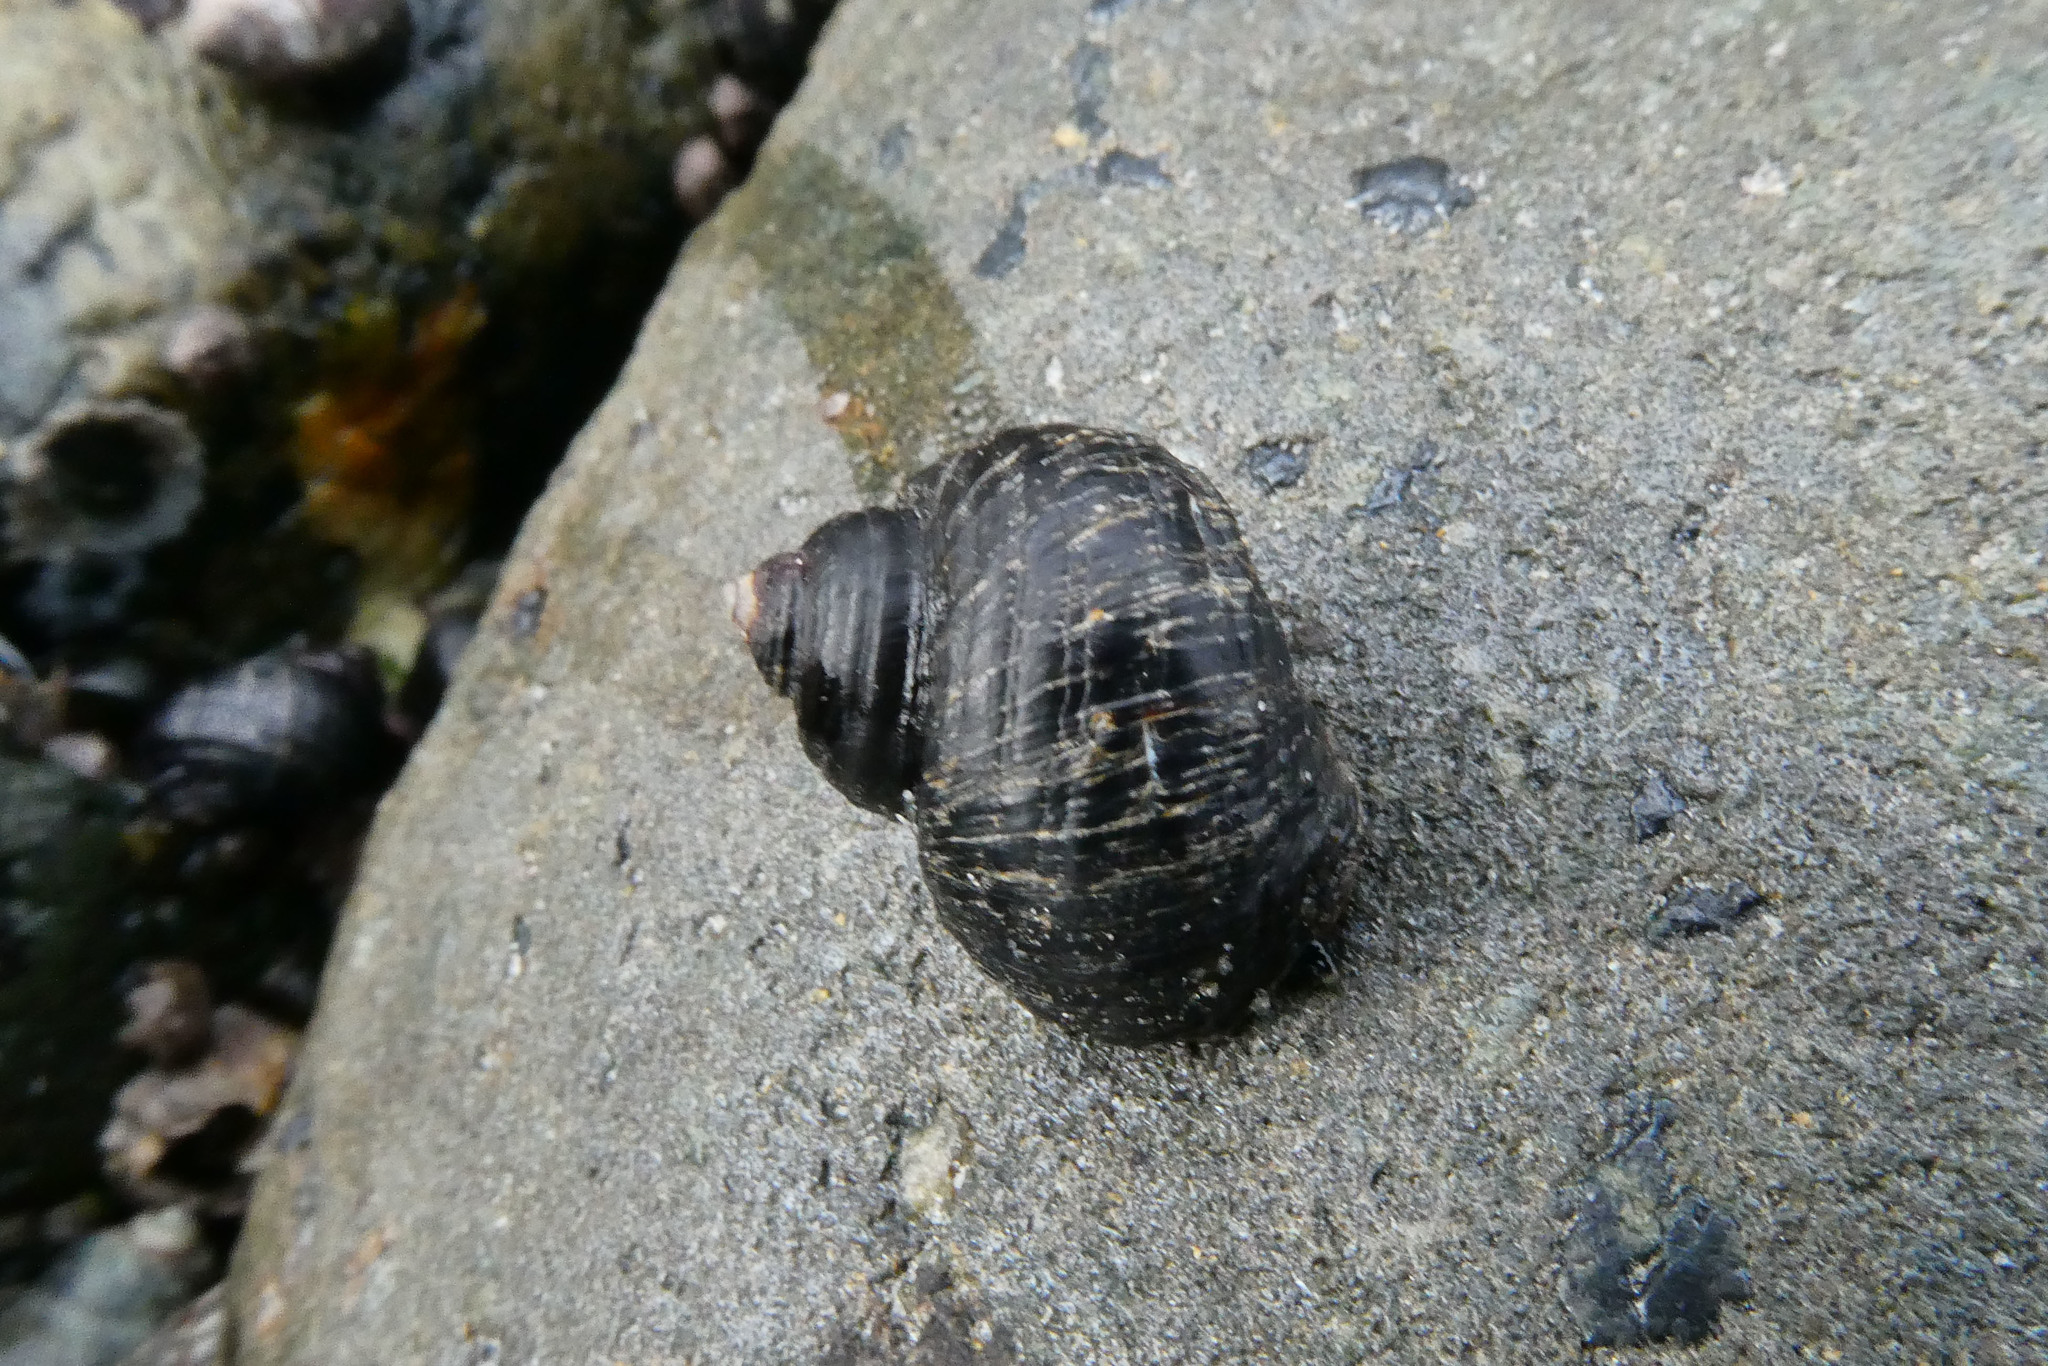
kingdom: Animalia
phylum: Mollusca
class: Gastropoda
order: Littorinimorpha
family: Littorinidae
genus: Littorina
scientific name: Littorina sitkana
